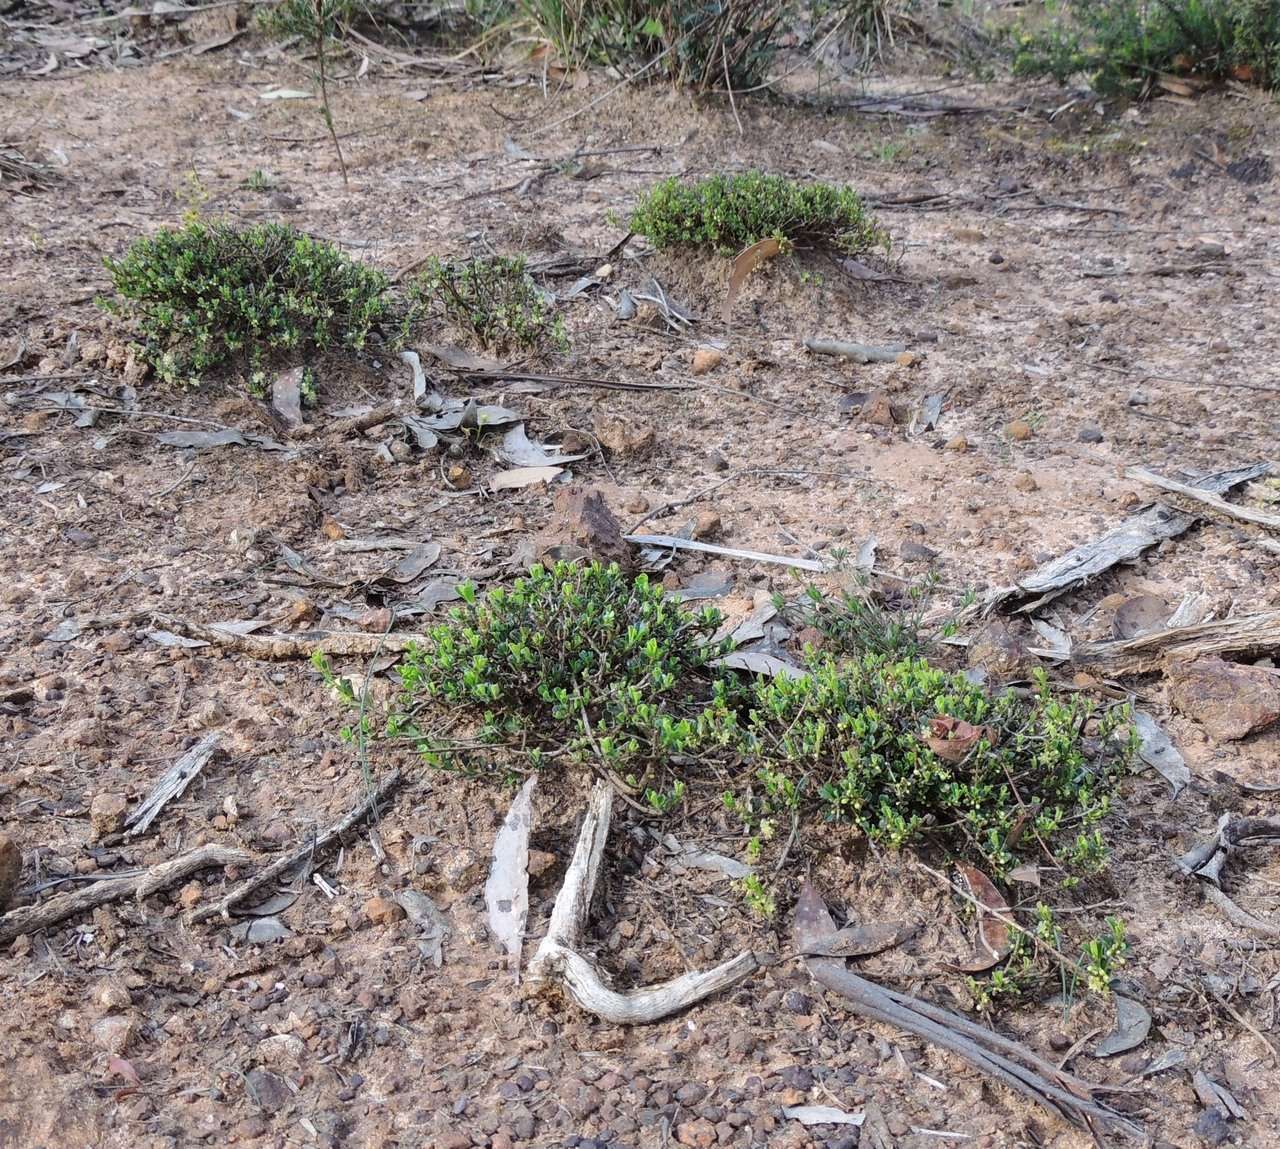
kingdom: Plantae
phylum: Tracheophyta
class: Magnoliopsida
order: Malpighiales
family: Phyllanthaceae
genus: Phyllanthus
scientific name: Phyllanthus hirtellus
